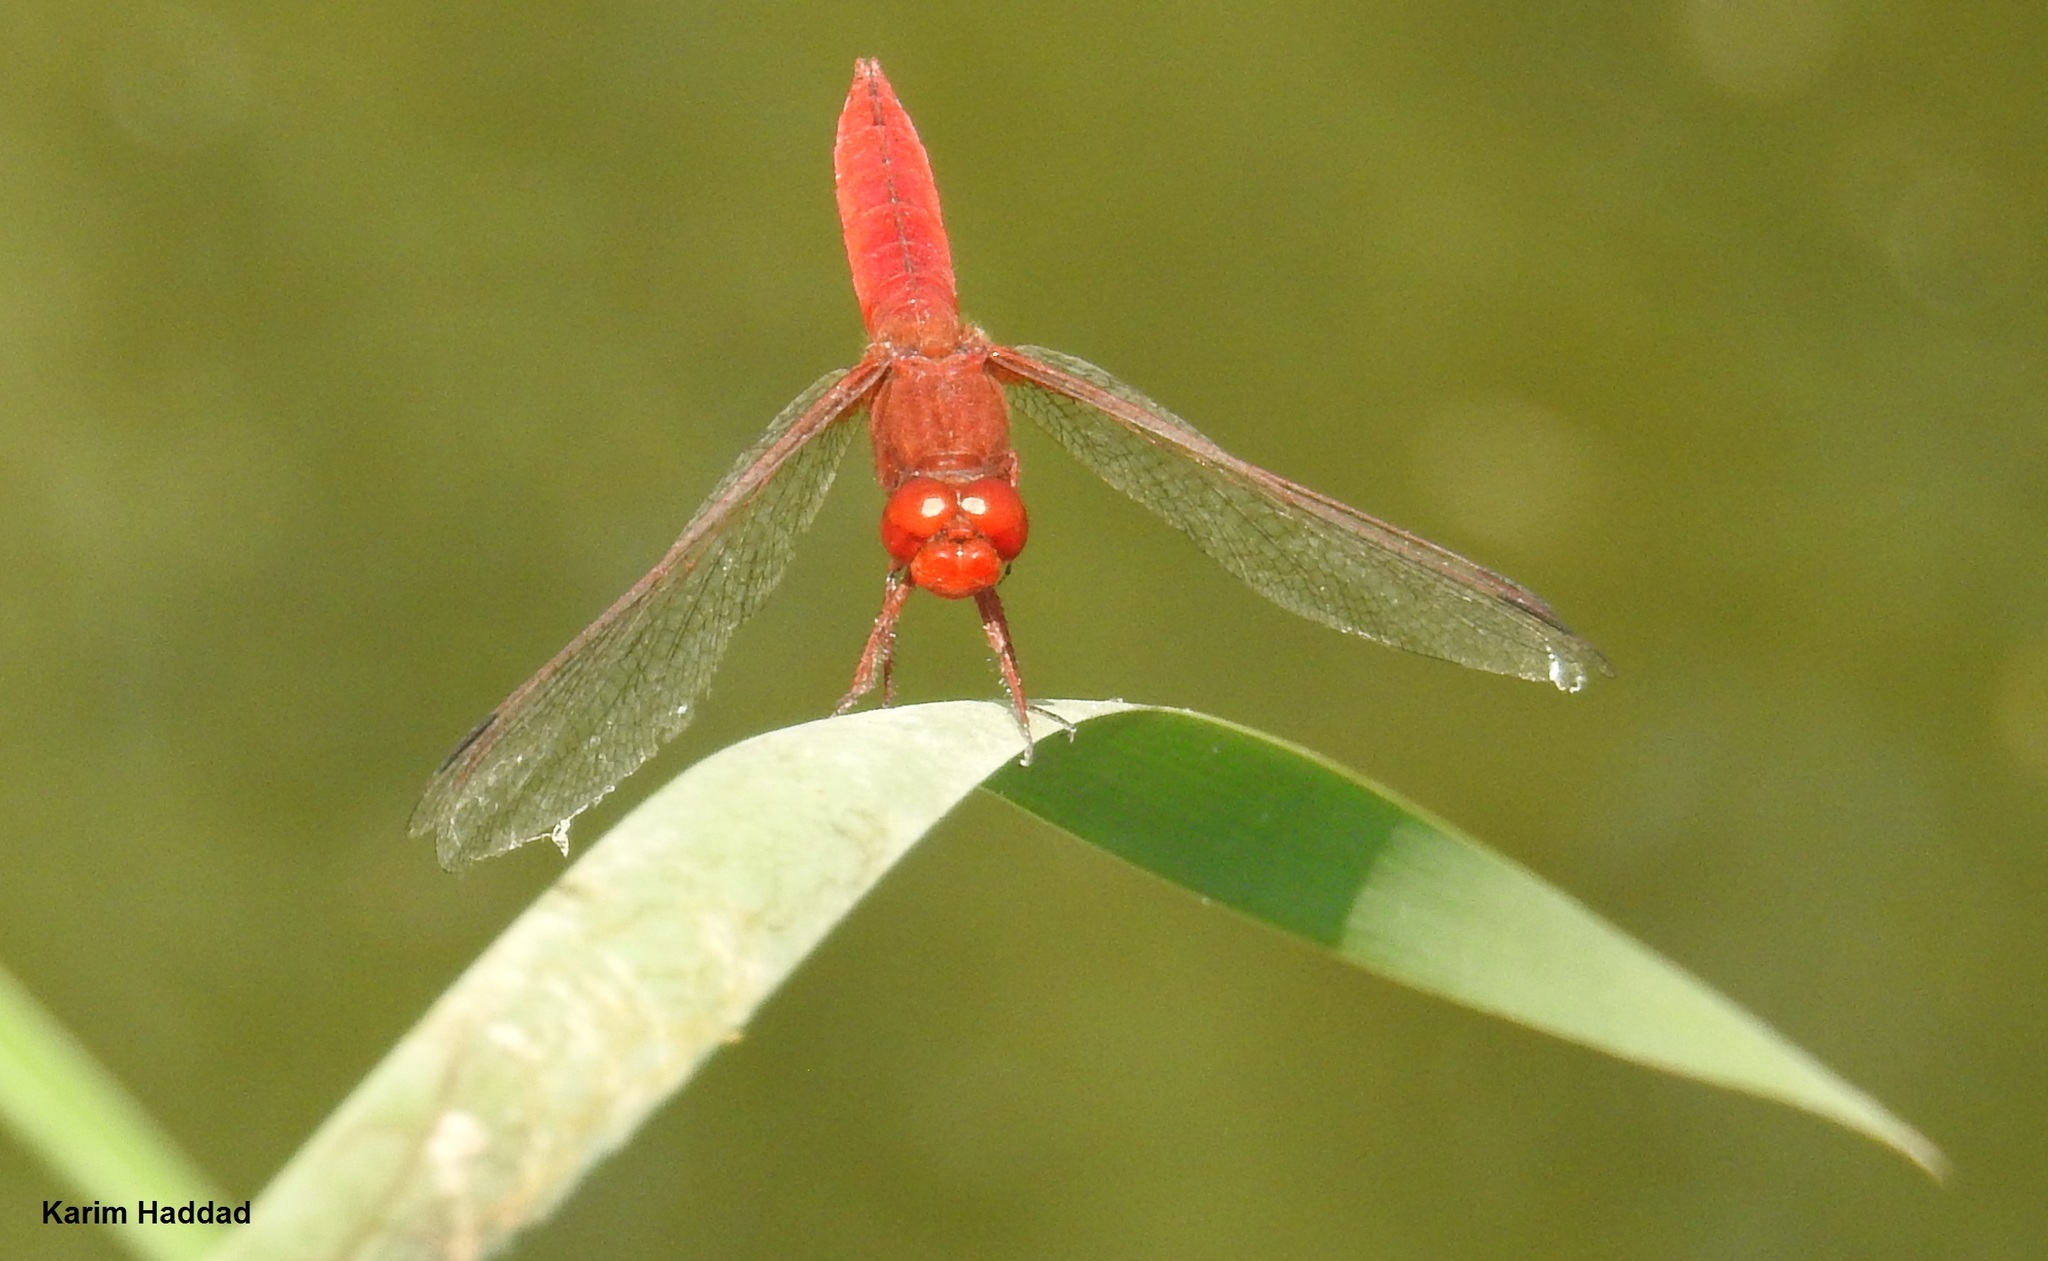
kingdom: Animalia
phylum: Arthropoda
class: Insecta
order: Odonata
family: Libellulidae
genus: Crocothemis
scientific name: Crocothemis erythraea
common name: Scarlet dragonfly
